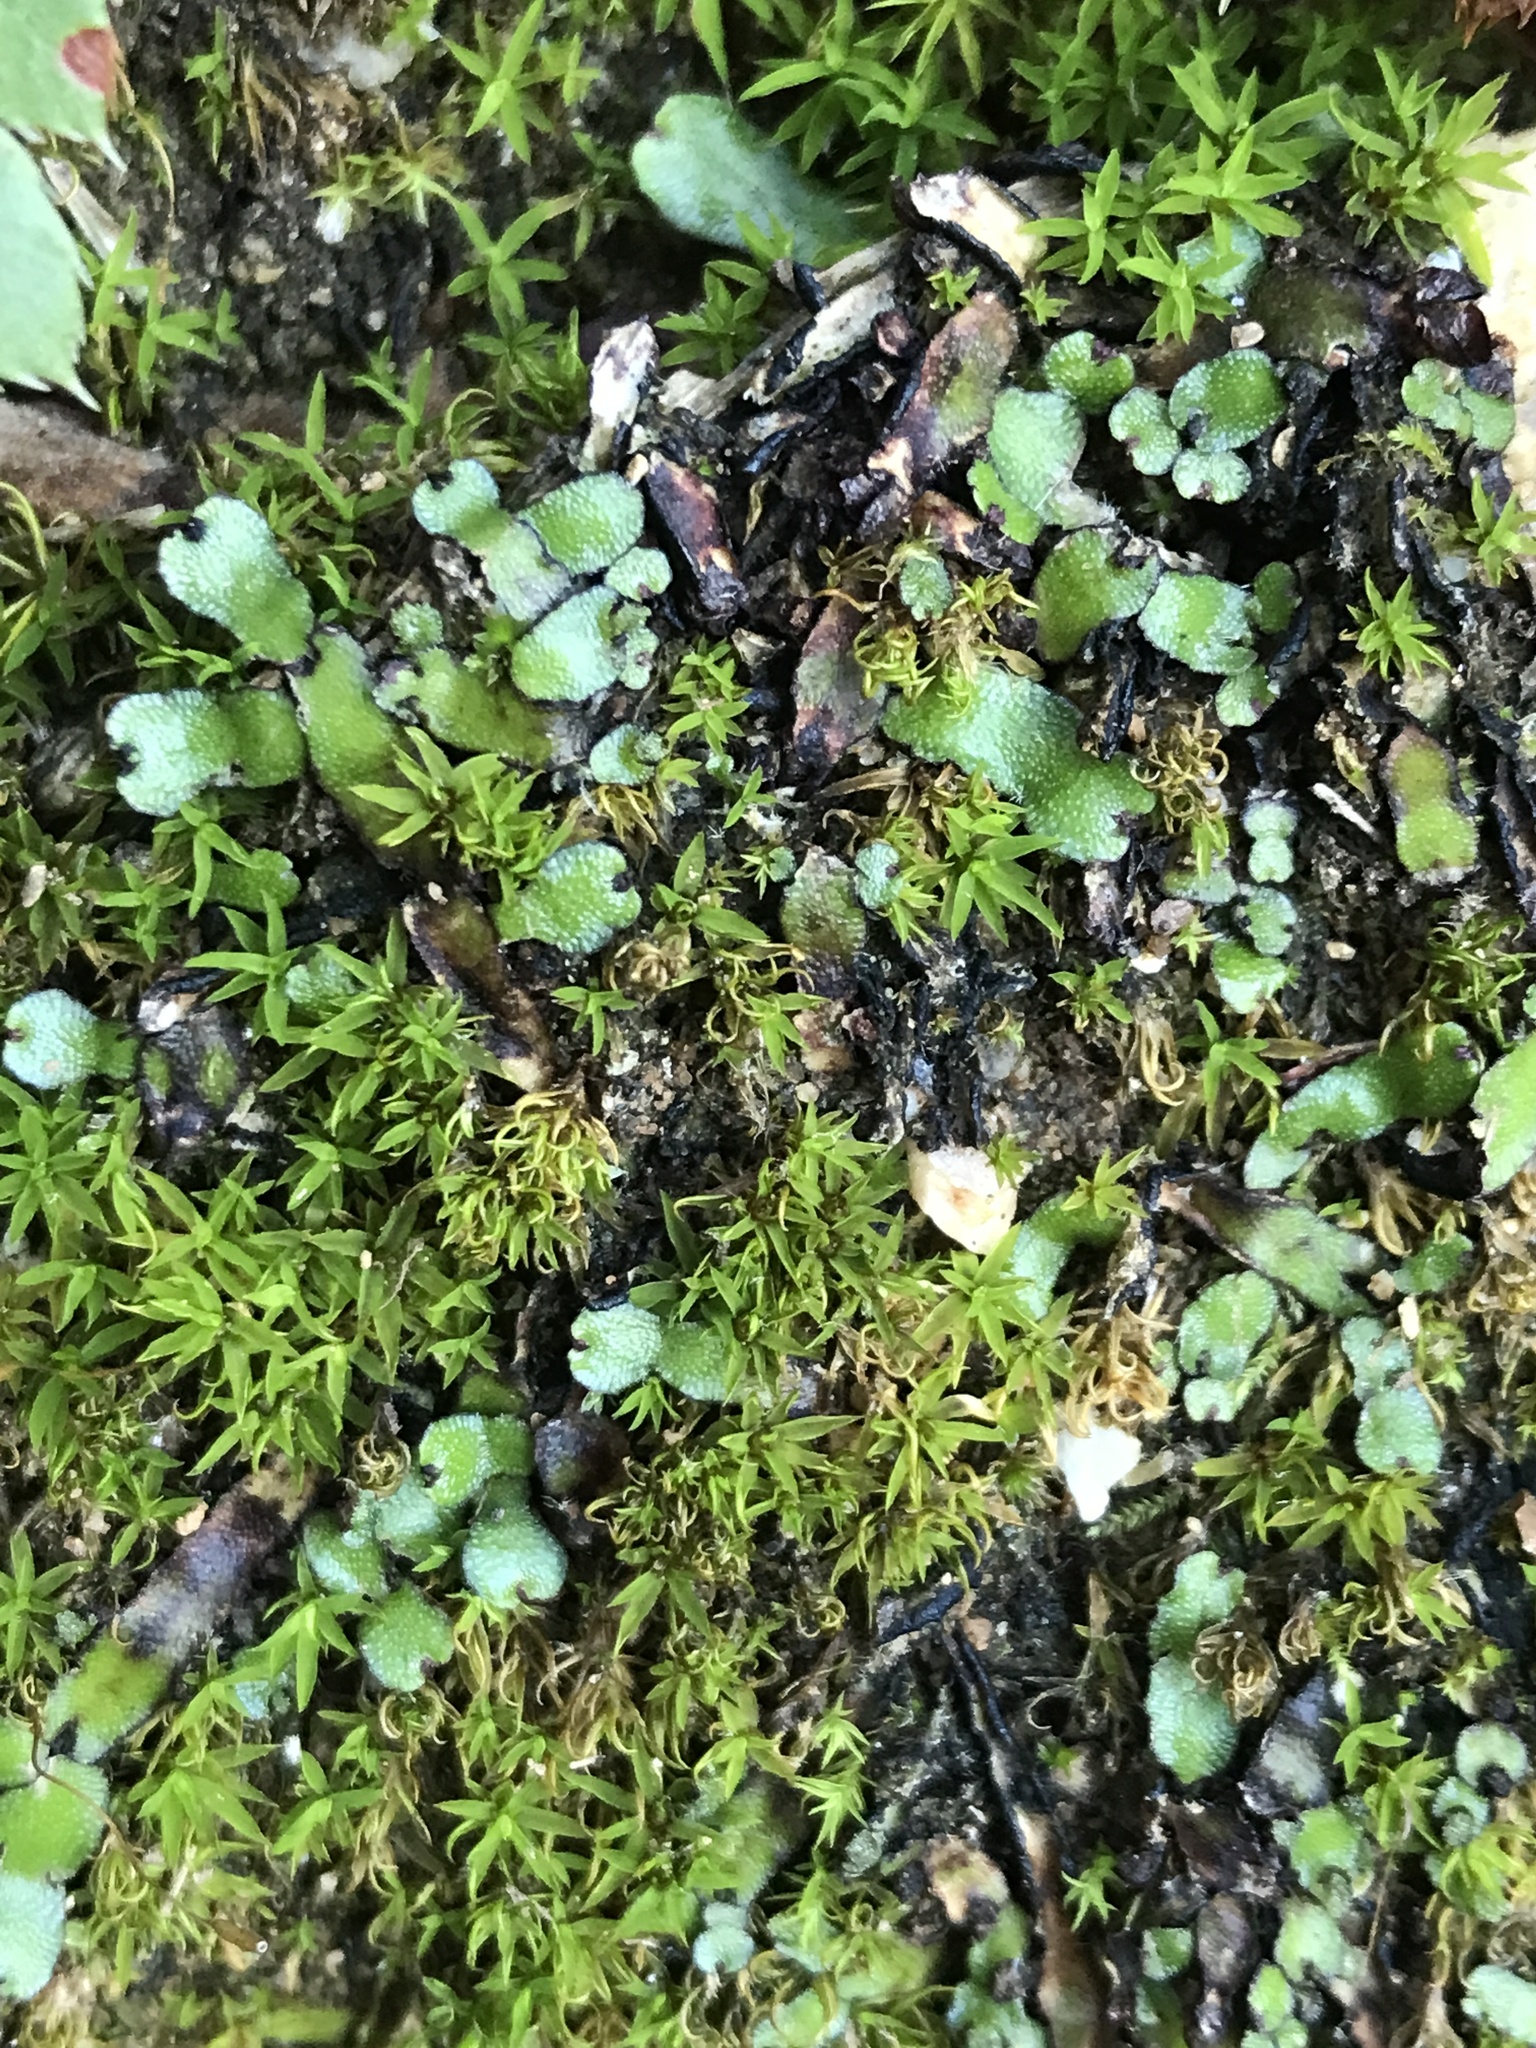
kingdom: Plantae
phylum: Marchantiophyta
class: Marchantiopsida
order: Marchantiales
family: Targioniaceae
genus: Targionia
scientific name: Targionia hypophylla
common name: Orobus-seed liverwort
